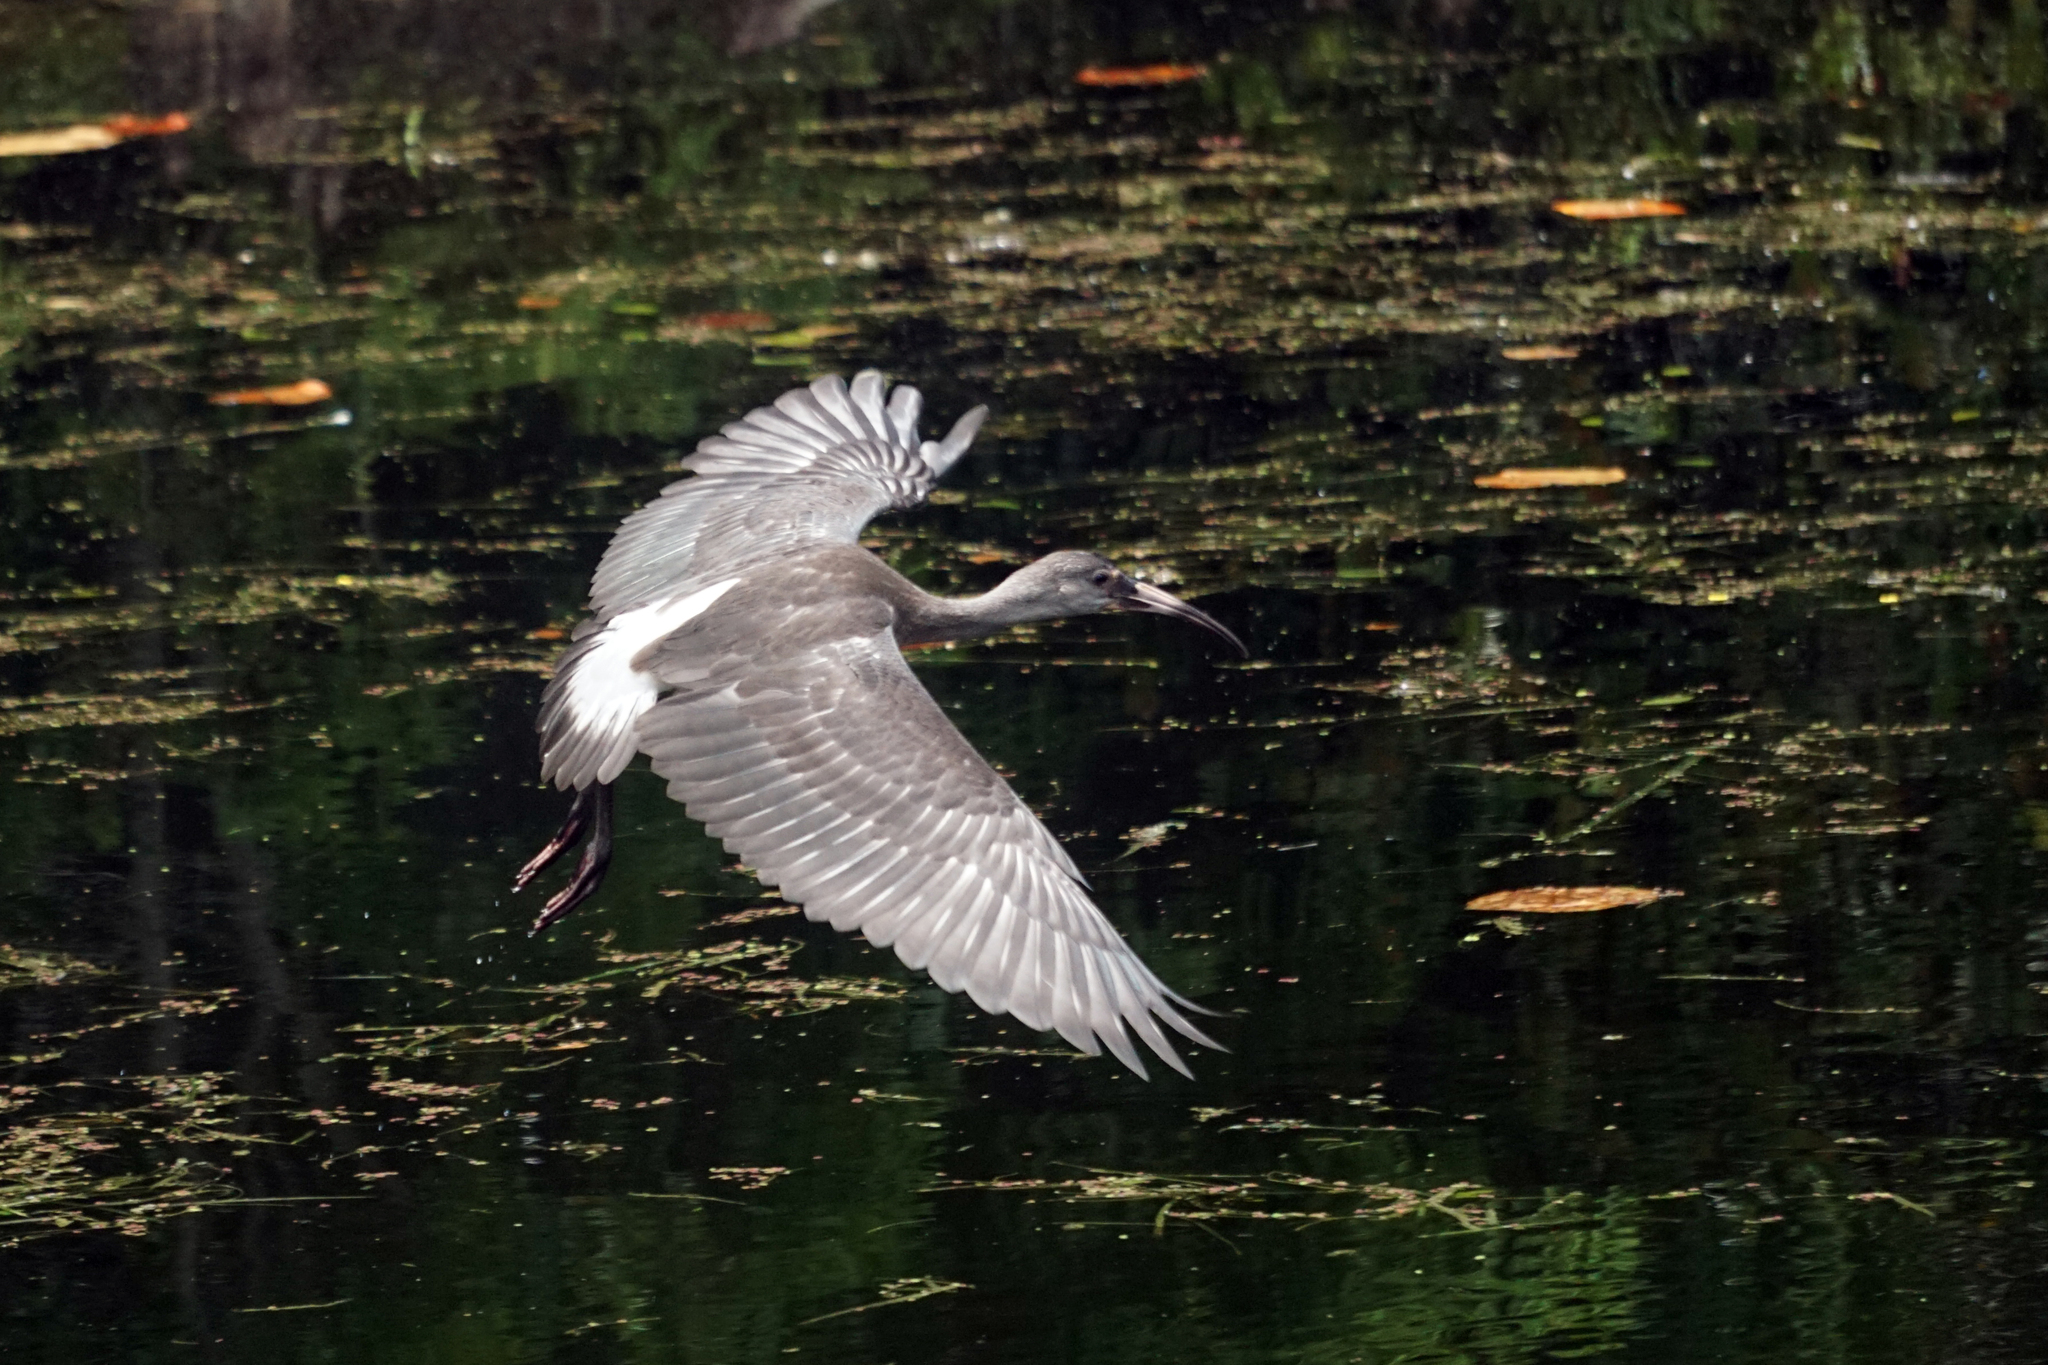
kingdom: Animalia
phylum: Chordata
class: Aves
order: Pelecaniformes
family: Threskiornithidae
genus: Eudocimus
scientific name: Eudocimus albus
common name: White ibis
